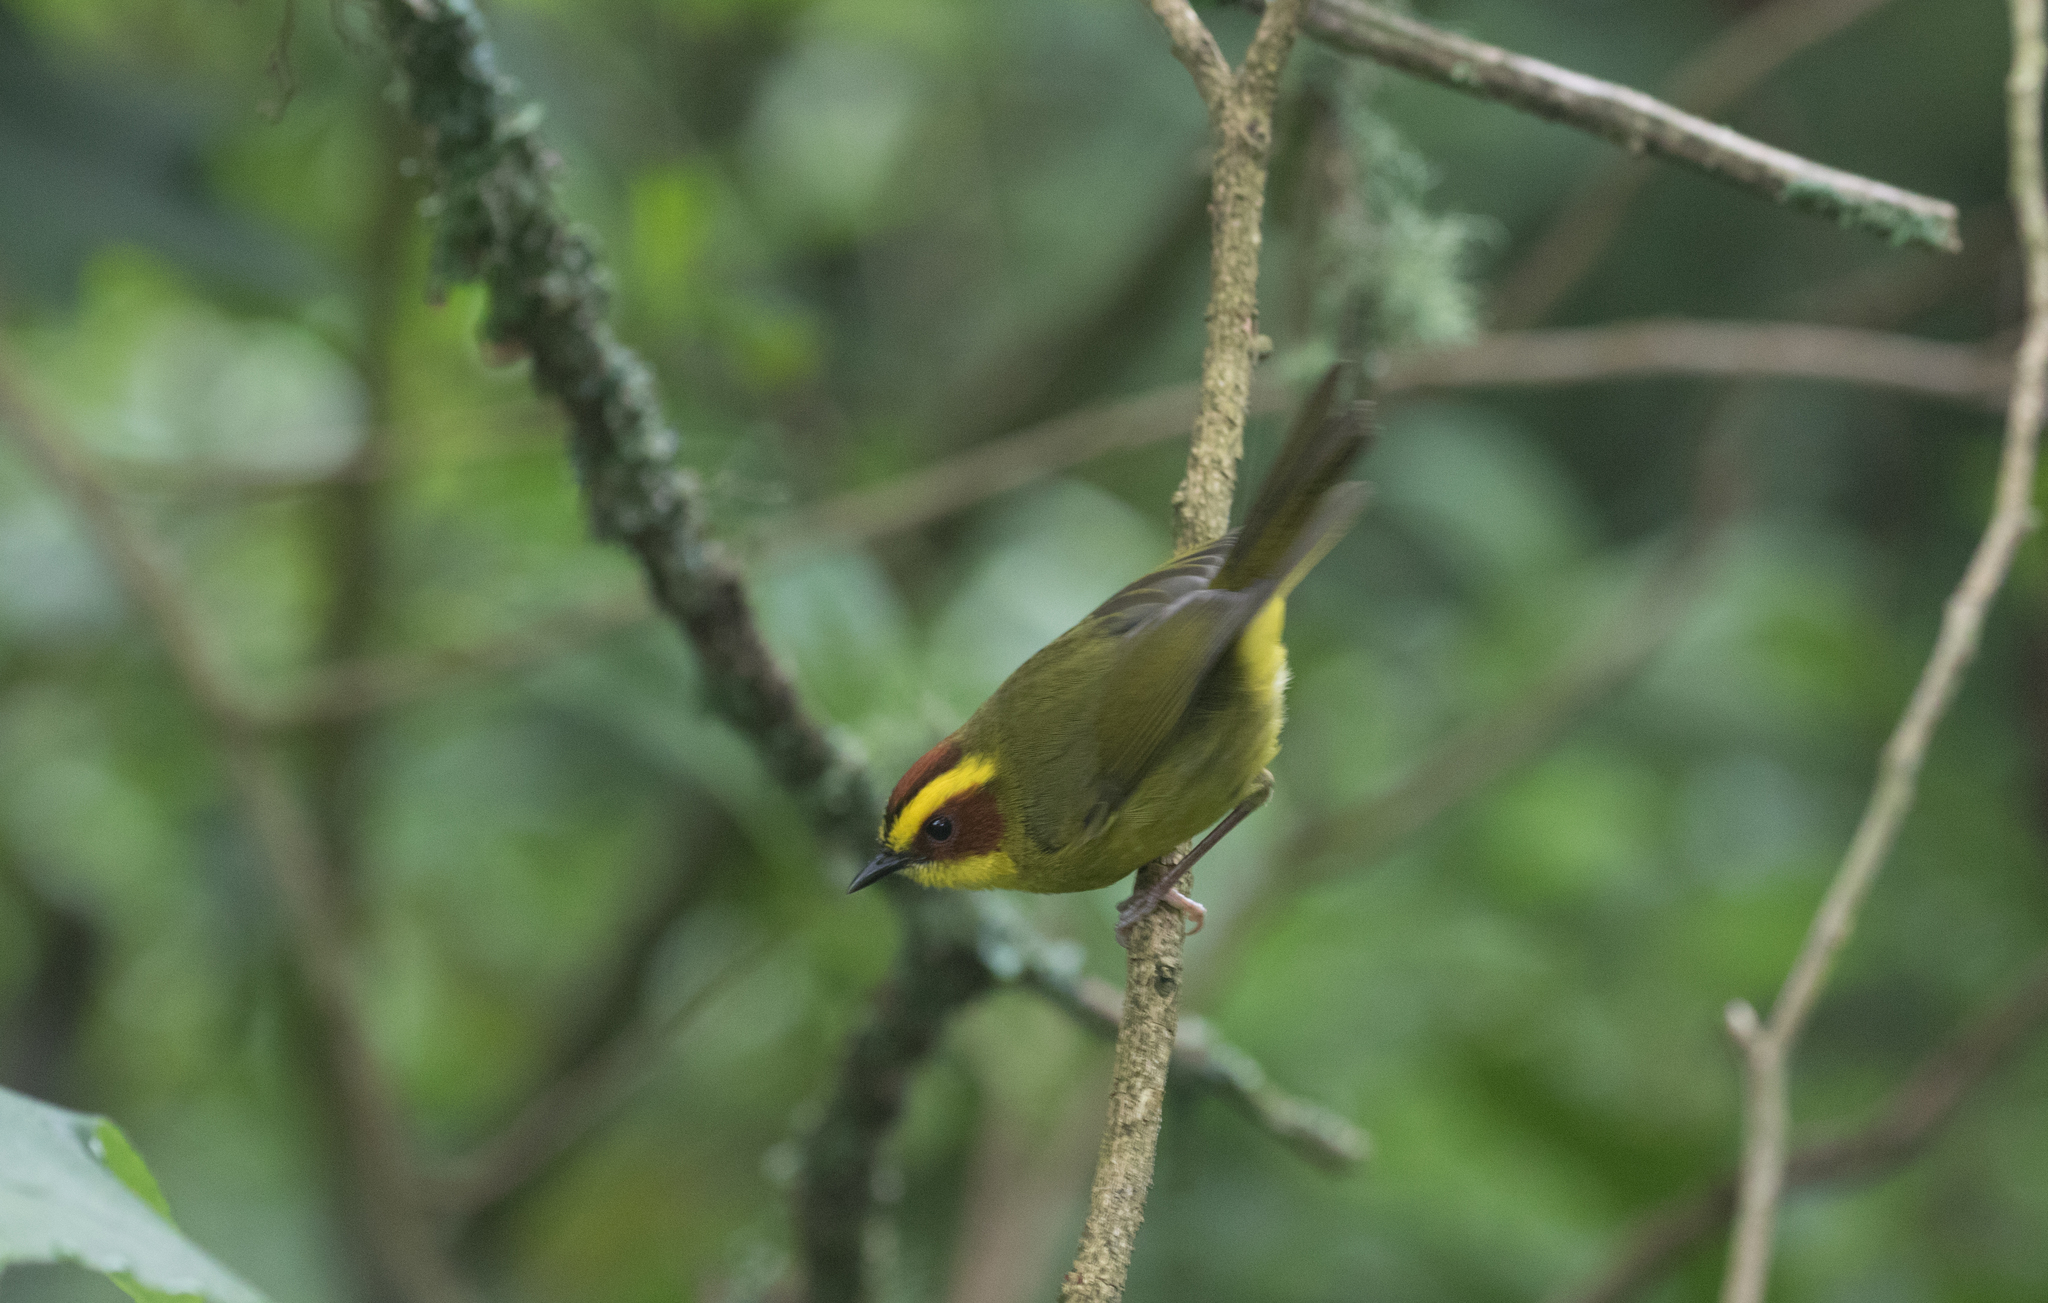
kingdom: Animalia
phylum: Chordata
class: Aves
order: Passeriformes
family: Parulidae
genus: Basileuterus
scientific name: Basileuterus belli
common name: Golden-browed warbler
